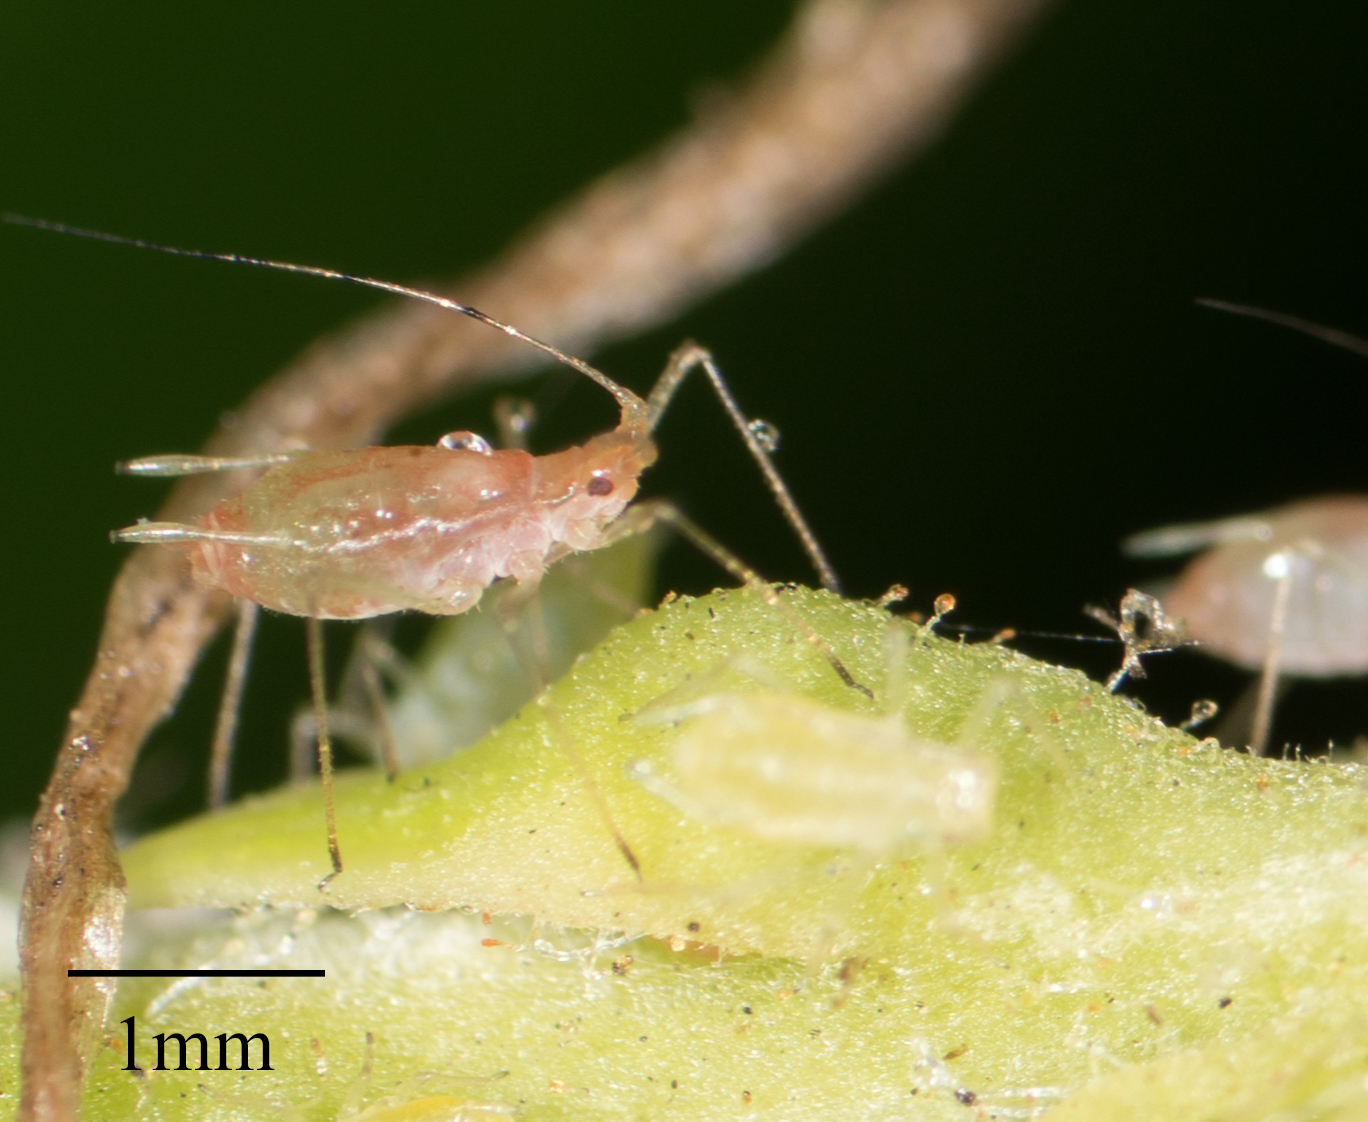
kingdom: Animalia
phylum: Arthropoda
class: Insecta
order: Hemiptera
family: Aphididae
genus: Wahlgreniella
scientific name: Wahlgreniella nervata
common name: Pale green aphid
